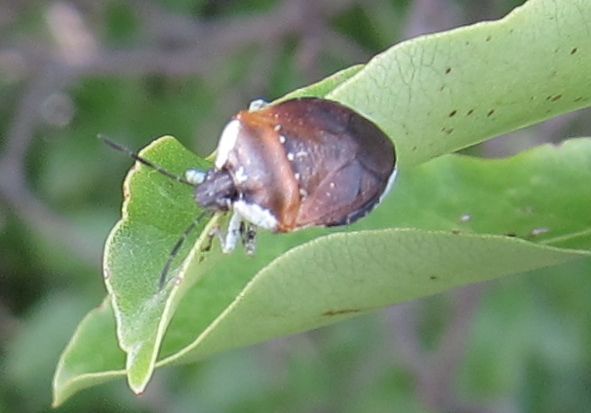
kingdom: Animalia
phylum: Arthropoda
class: Insecta
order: Hemiptera
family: Pentatomidae
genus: Monteithiella
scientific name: Monteithiella
